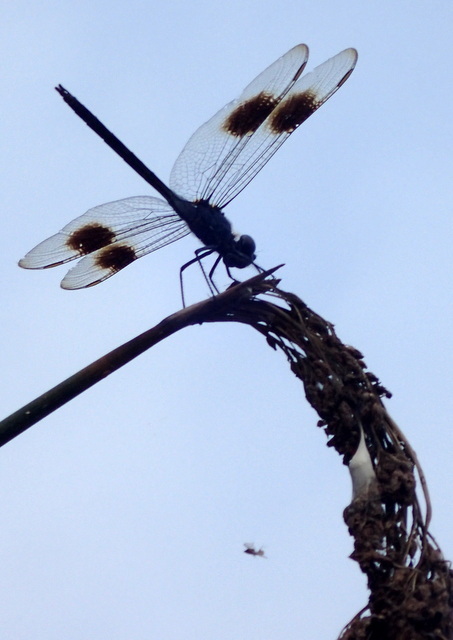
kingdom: Animalia
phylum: Arthropoda
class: Insecta
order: Odonata
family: Libellulidae
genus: Brachymesia
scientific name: Brachymesia gravida
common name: Four-spotted pennant
